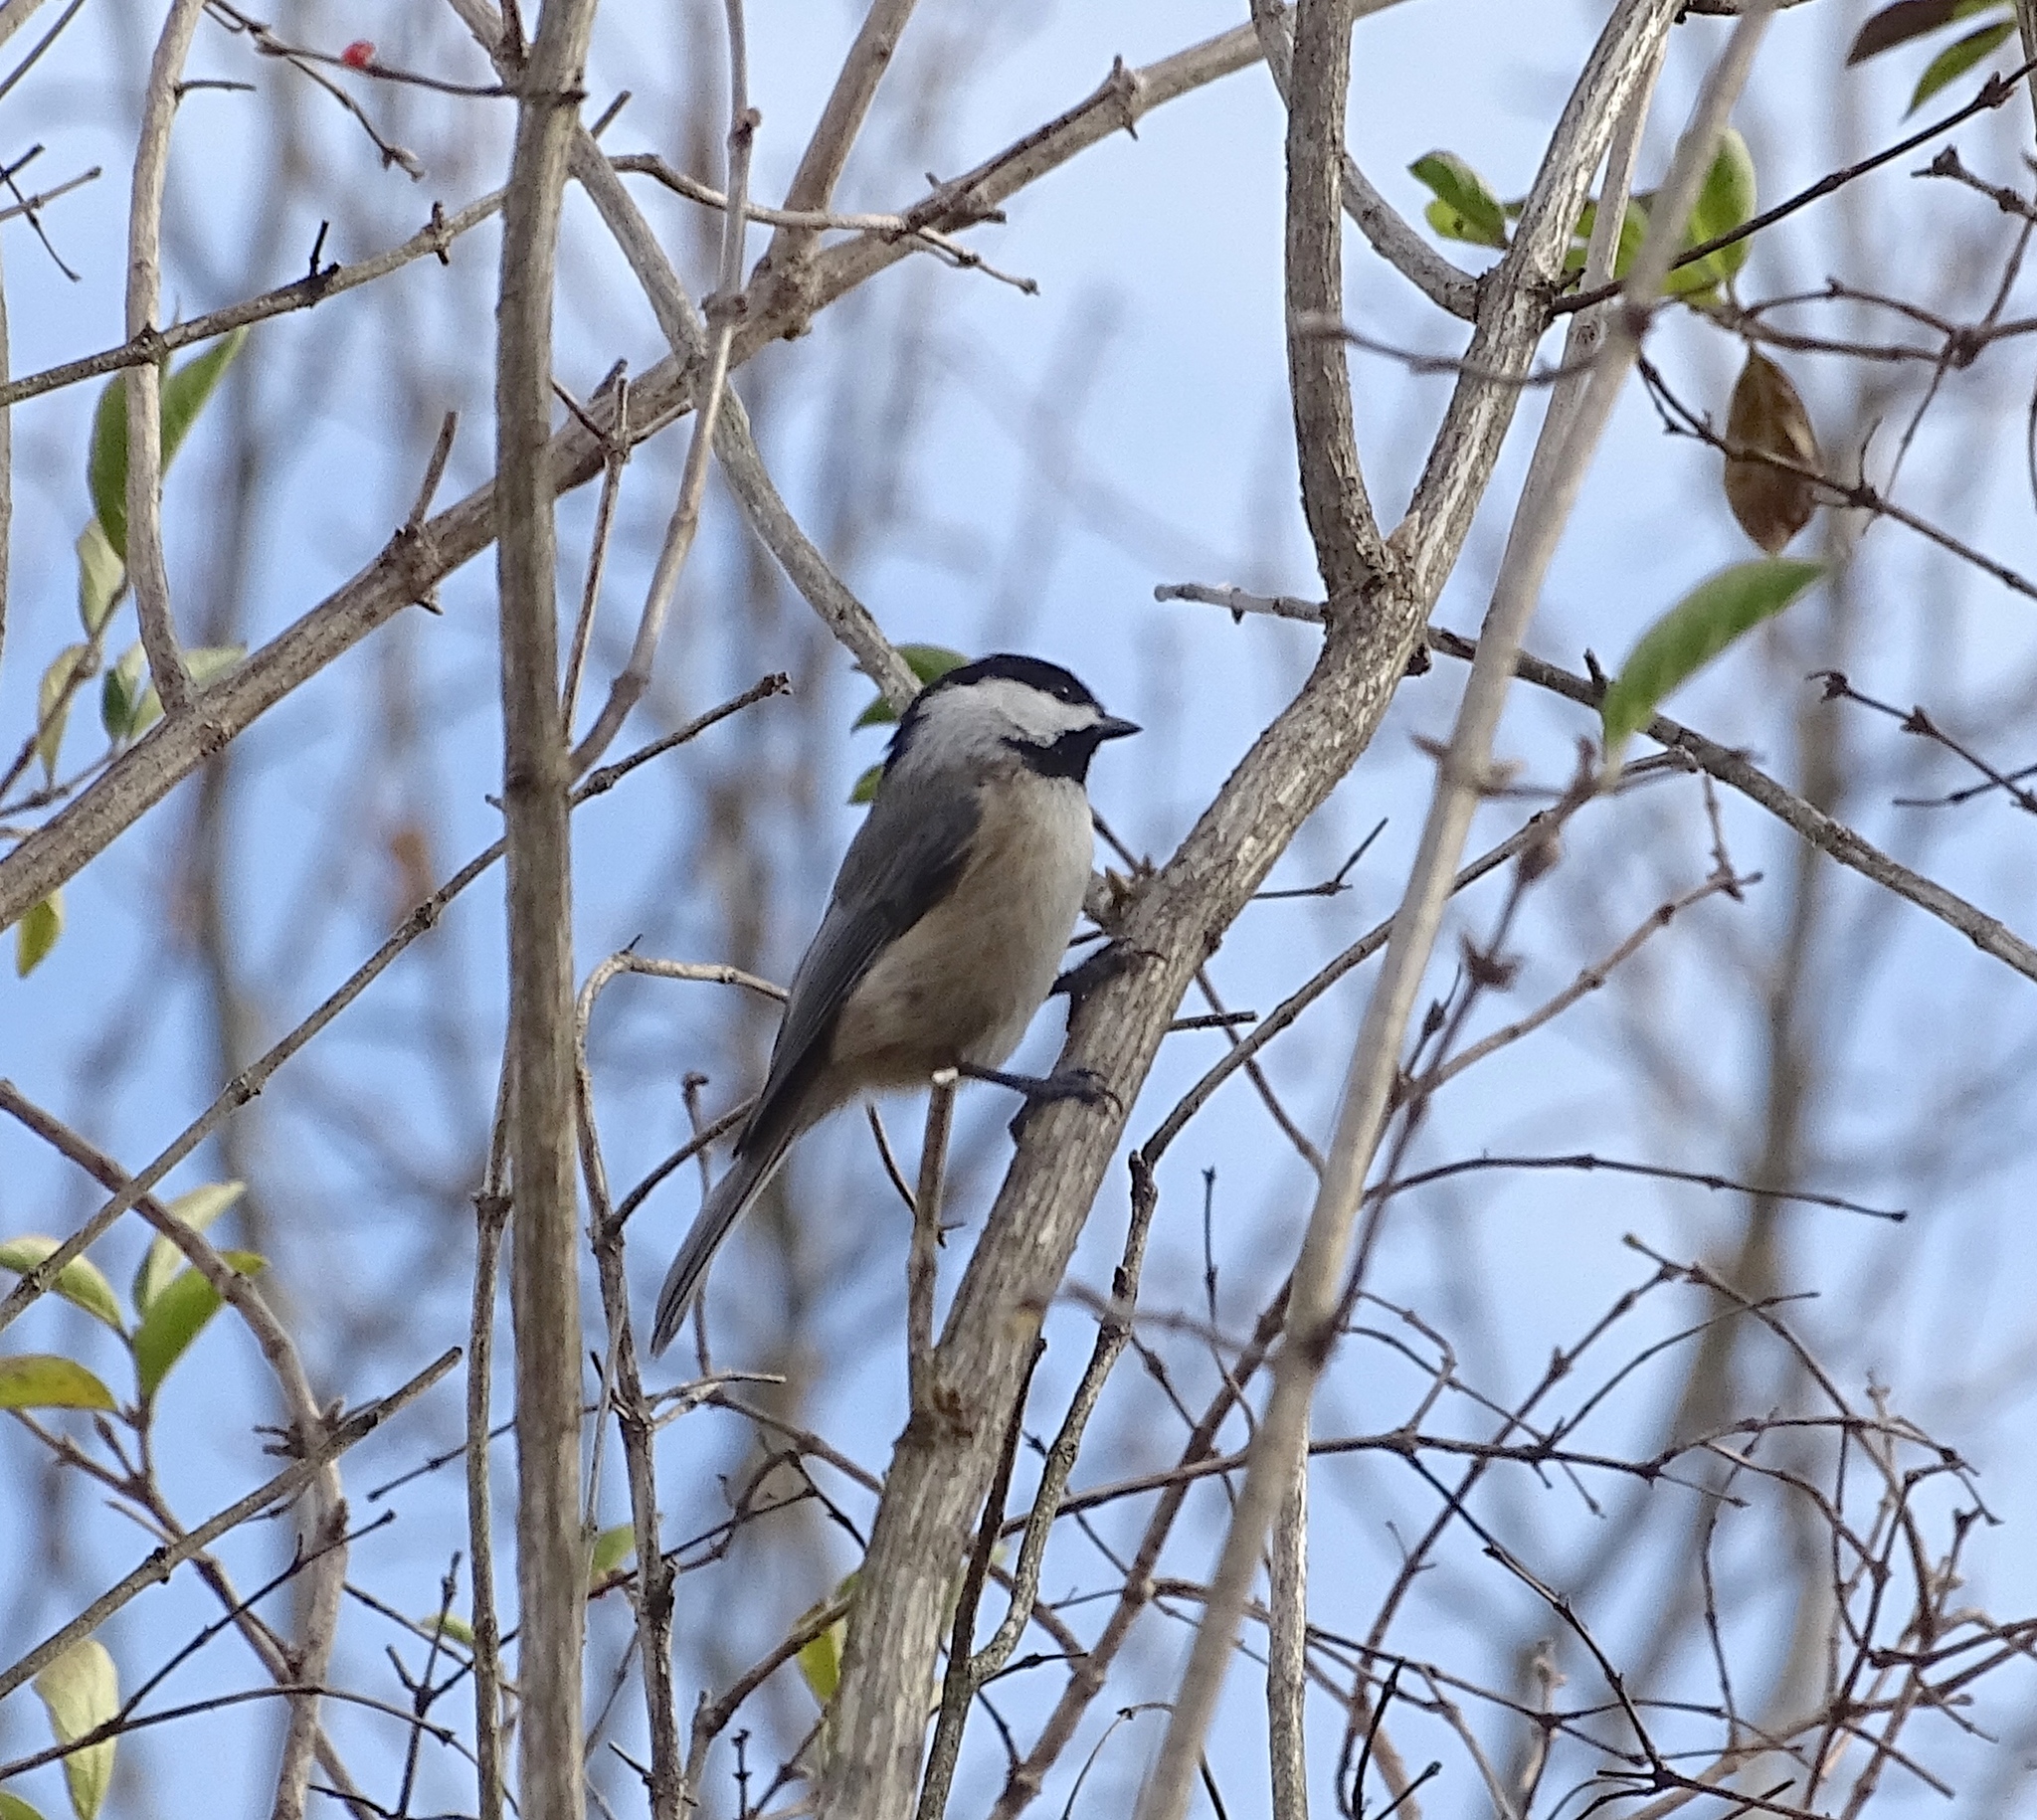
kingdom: Animalia
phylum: Chordata
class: Aves
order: Passeriformes
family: Paridae
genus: Poecile
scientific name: Poecile carolinensis
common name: Carolina chickadee
